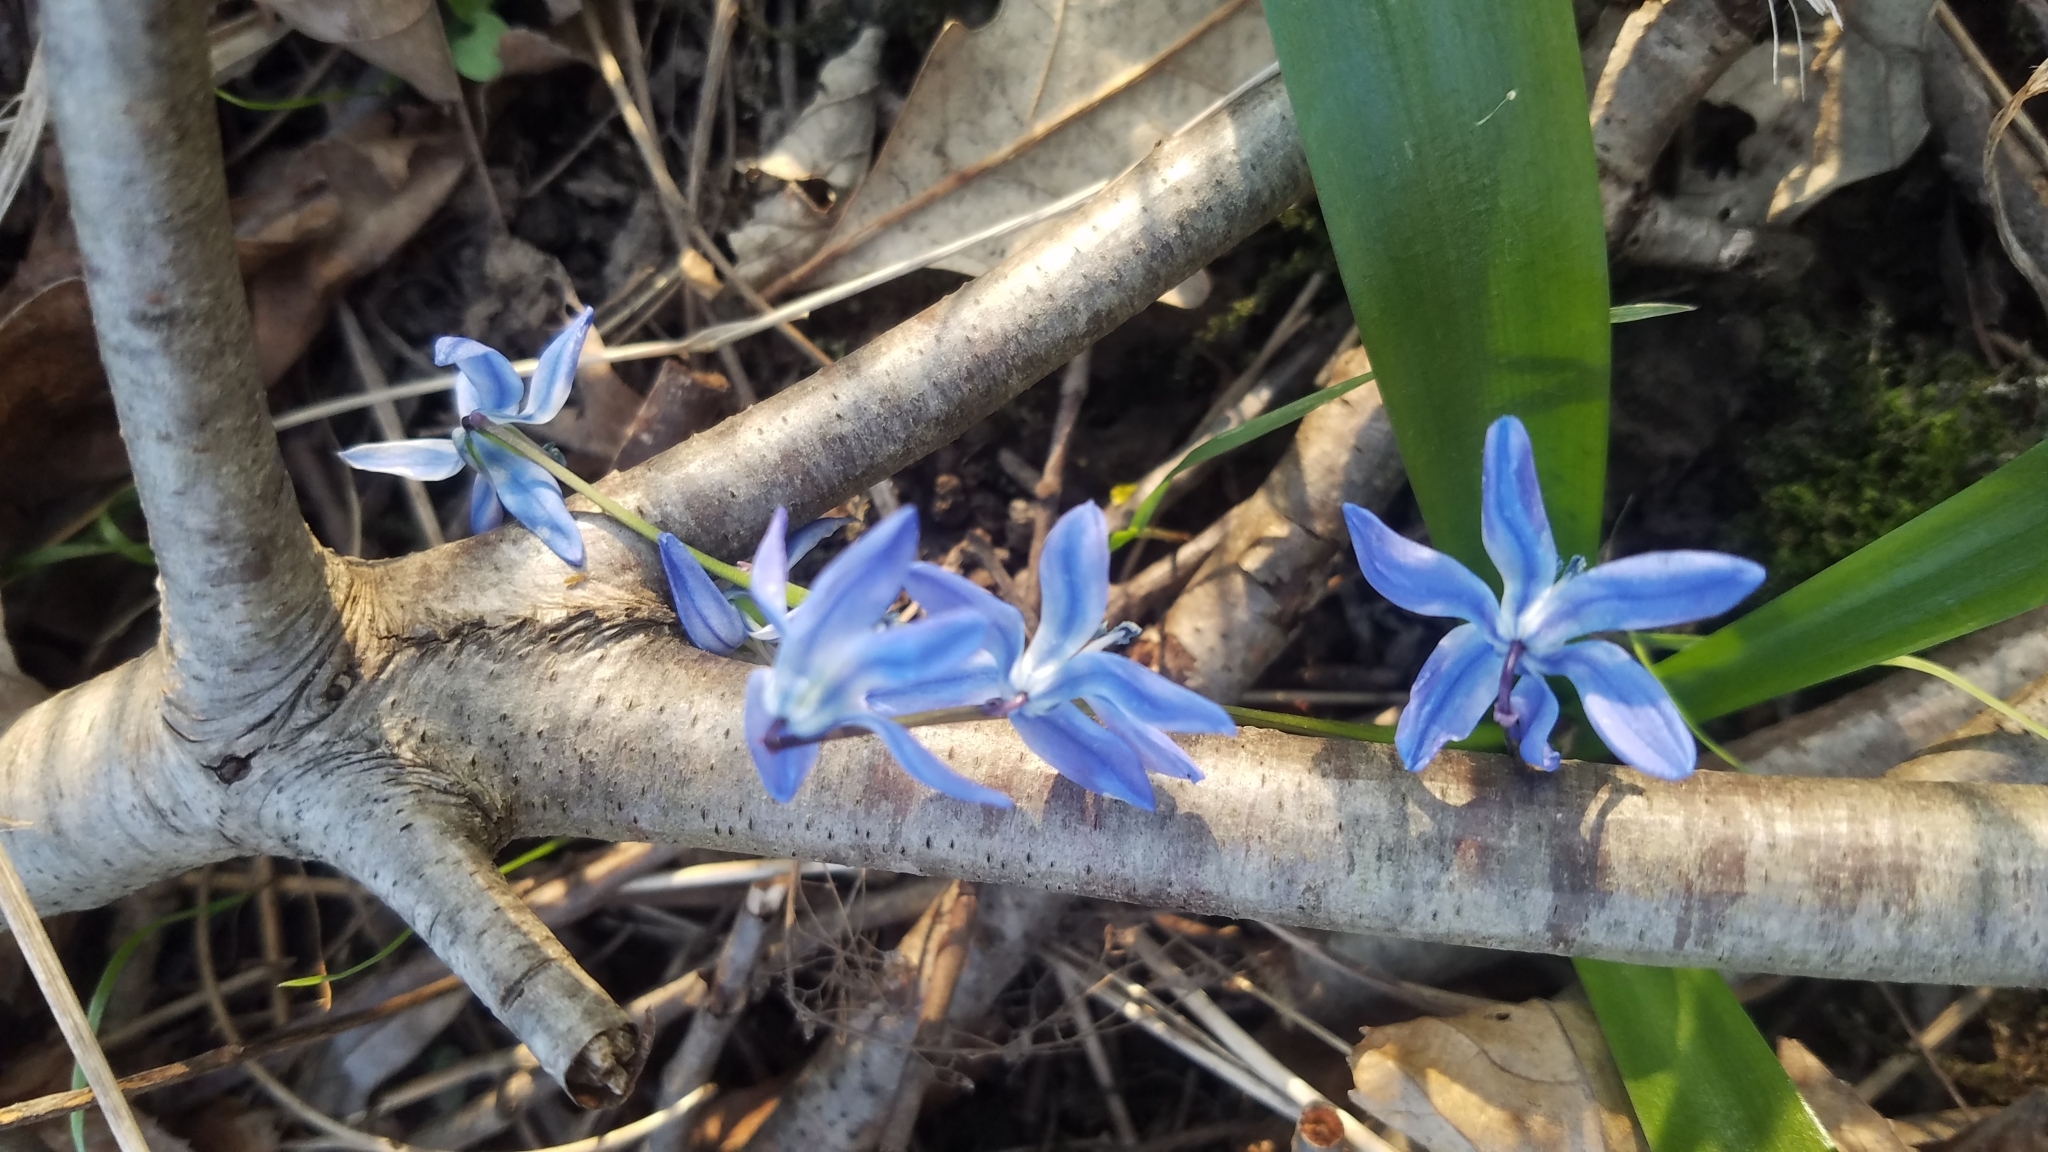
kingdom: Plantae
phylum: Tracheophyta
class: Liliopsida
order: Asparagales
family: Asparagaceae
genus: Scilla
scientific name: Scilla siberica
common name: Siberian squill
